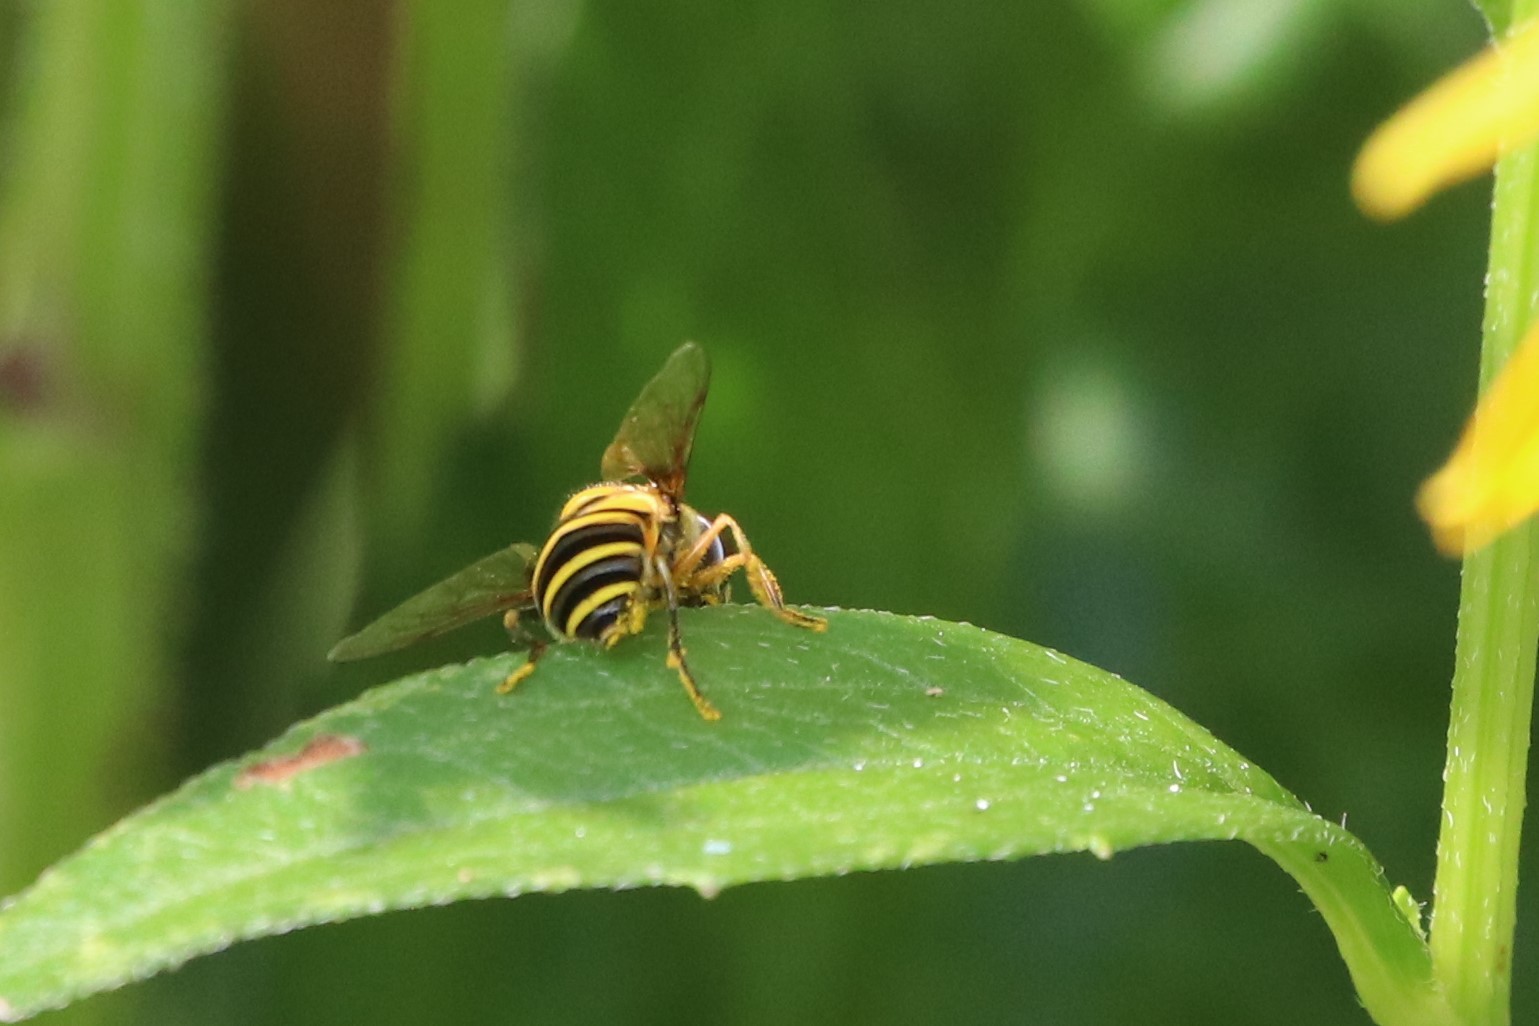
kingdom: Animalia
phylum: Arthropoda
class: Insecta
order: Diptera
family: Syrphidae
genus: Eristalis
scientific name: Eristalis transversa
